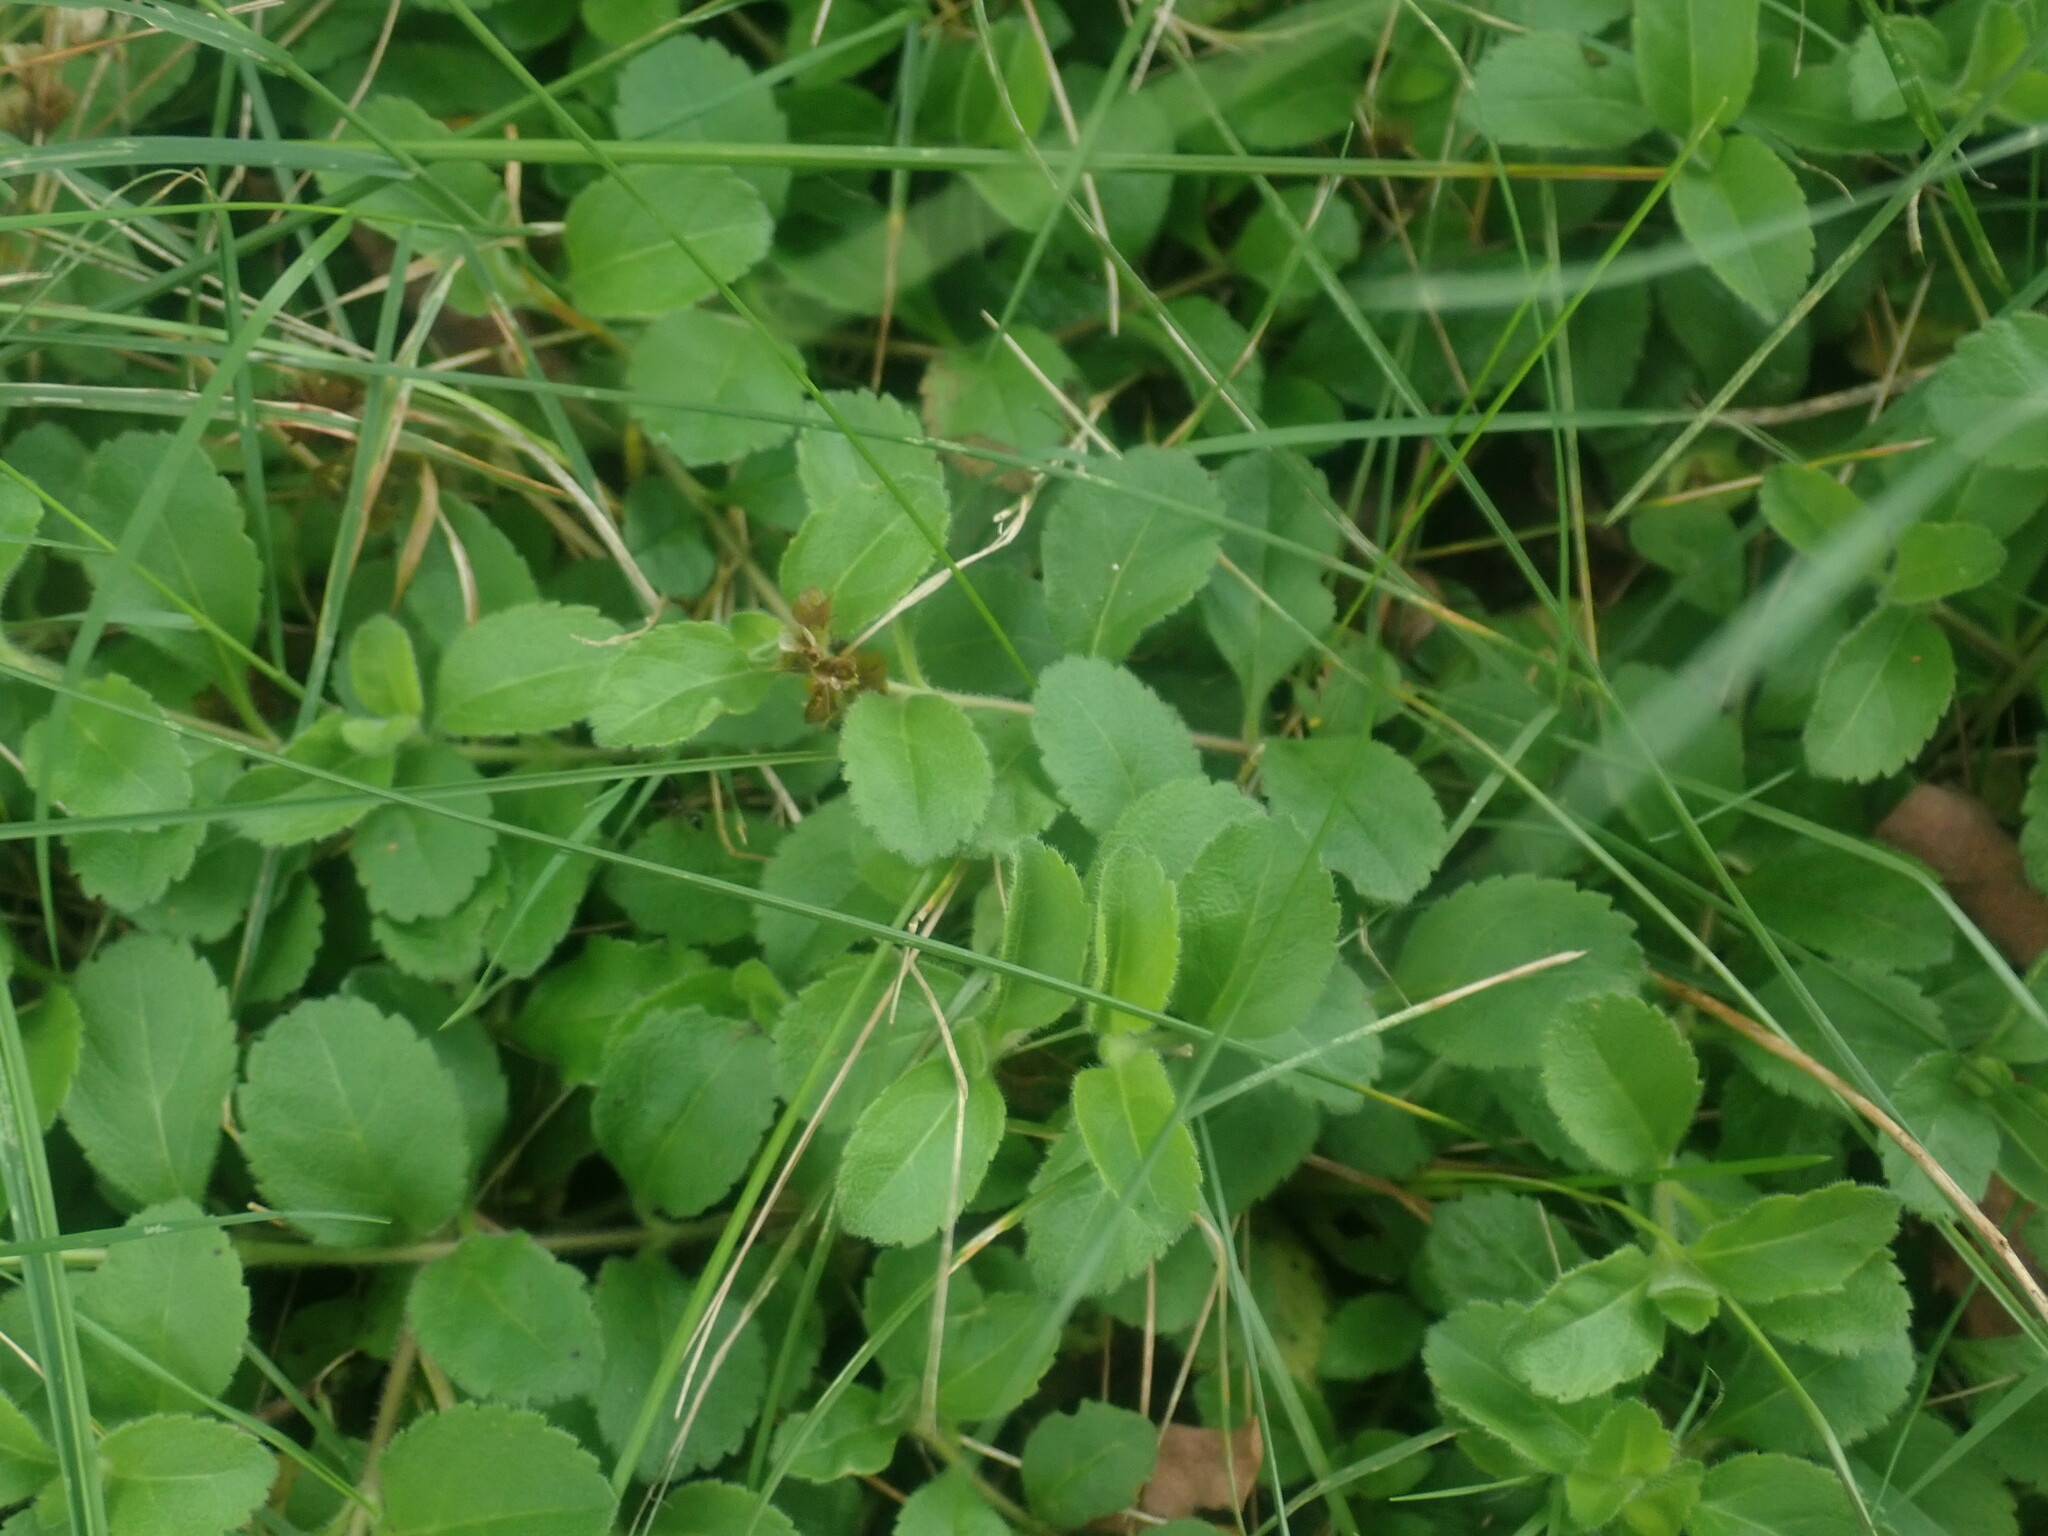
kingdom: Plantae
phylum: Tracheophyta
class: Magnoliopsida
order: Lamiales
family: Plantaginaceae
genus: Veronica
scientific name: Veronica officinalis
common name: Common speedwell
